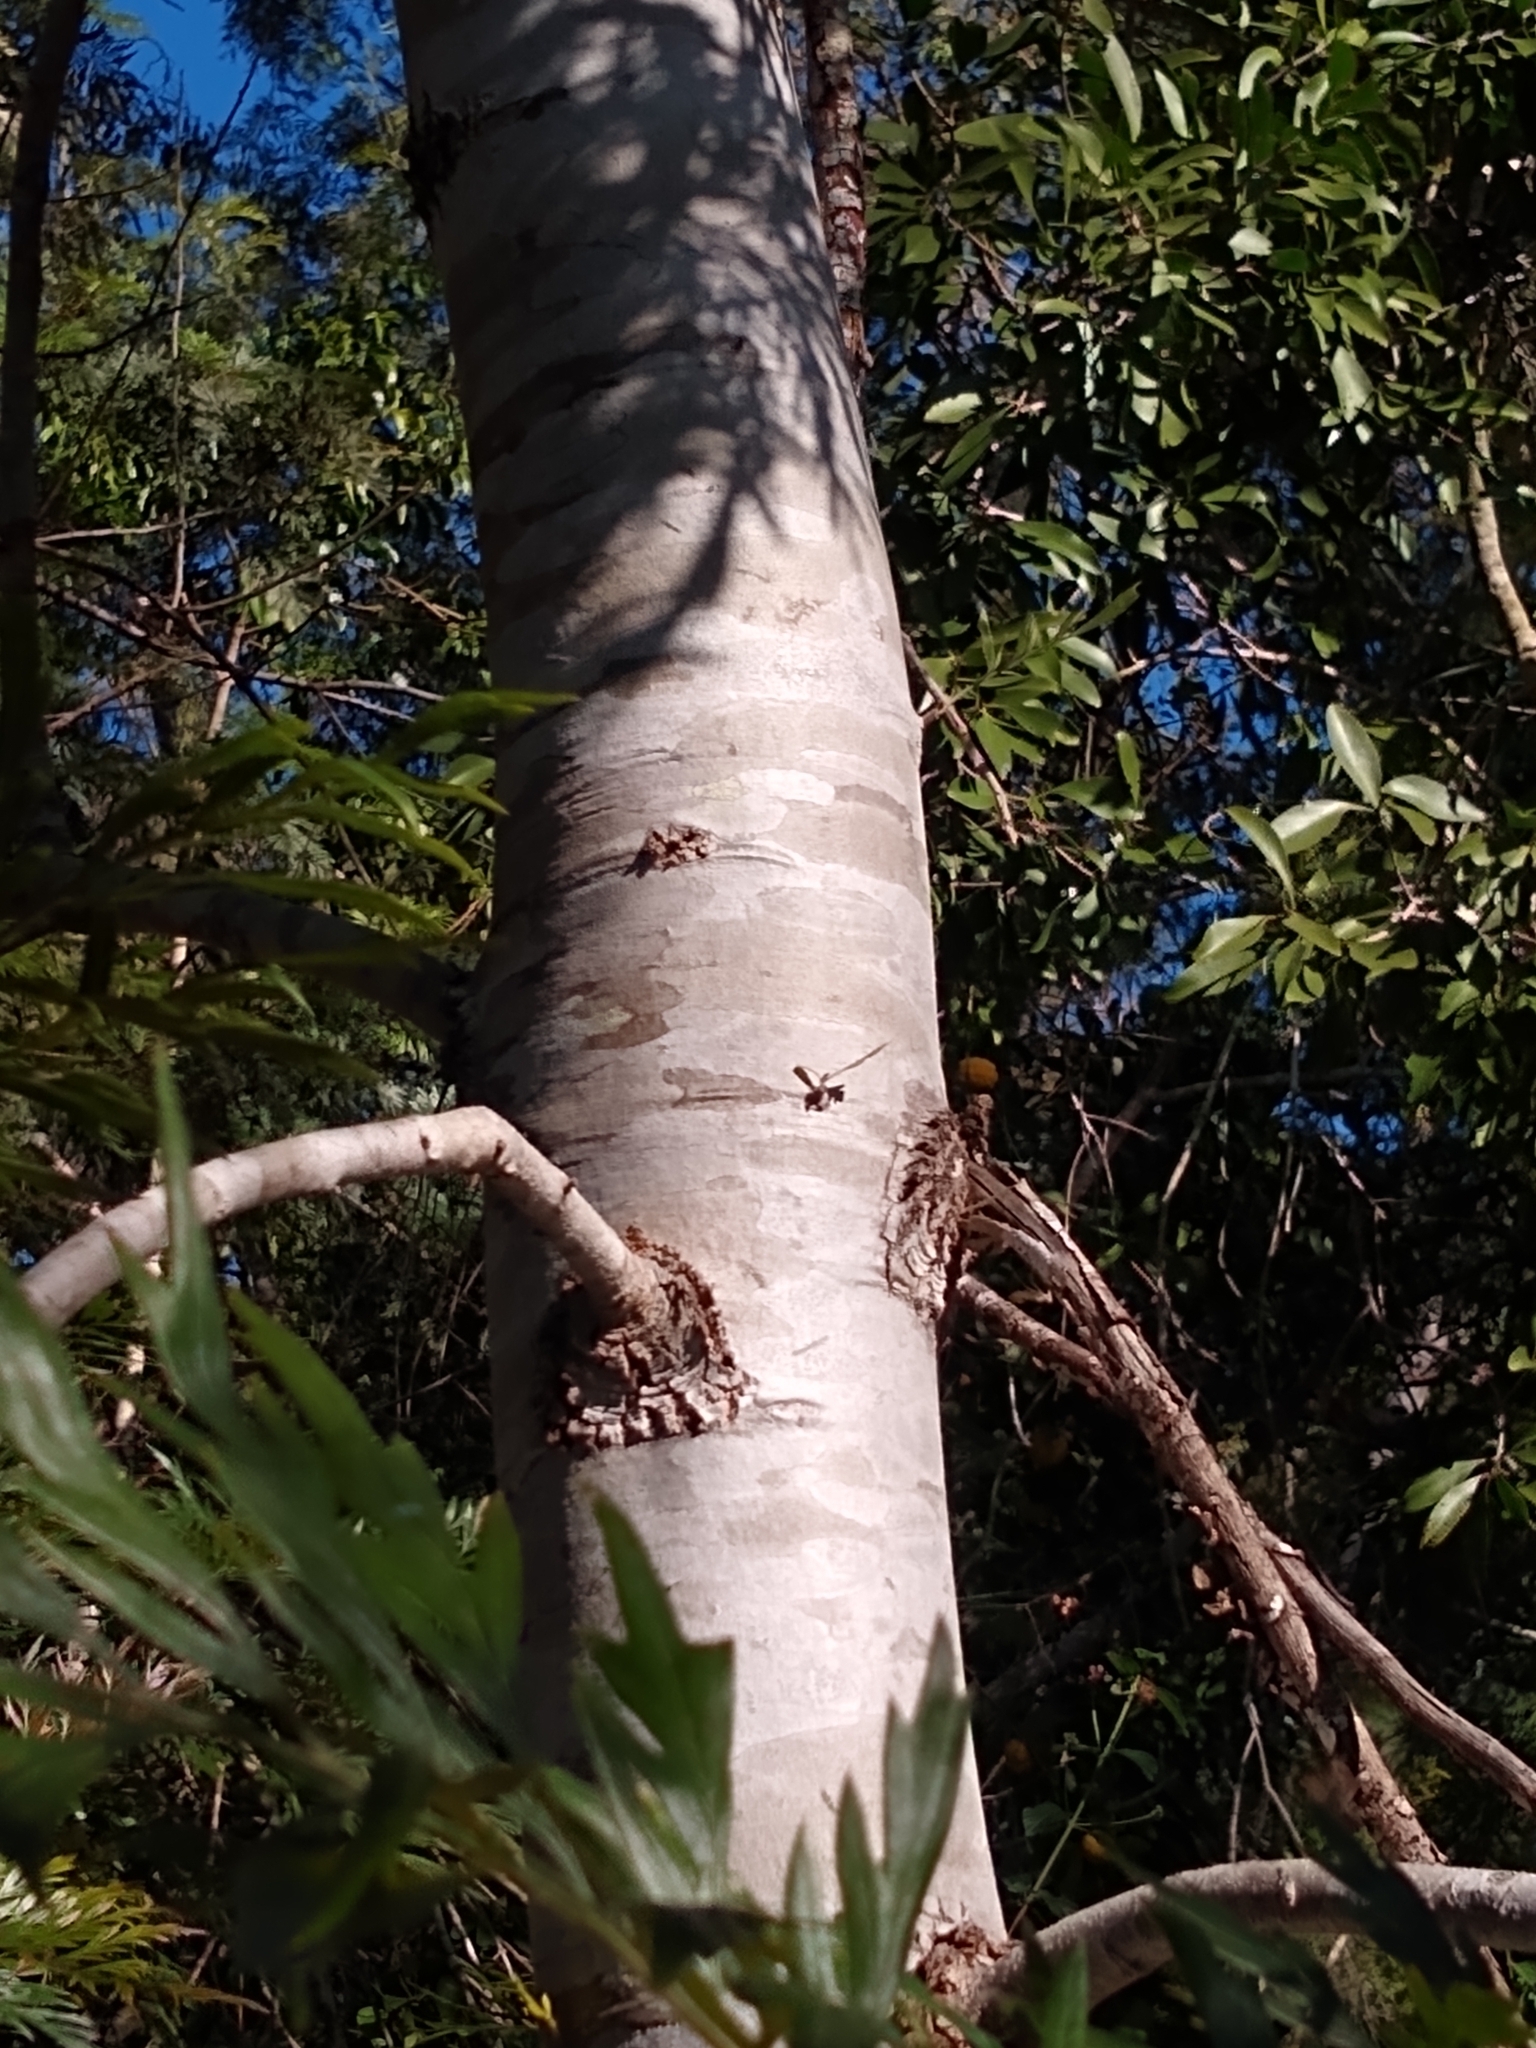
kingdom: Plantae
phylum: Tracheophyta
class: Magnoliopsida
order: Proteales
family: Proteaceae
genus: Grevillea
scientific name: Grevillea robusta
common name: Silkoak
